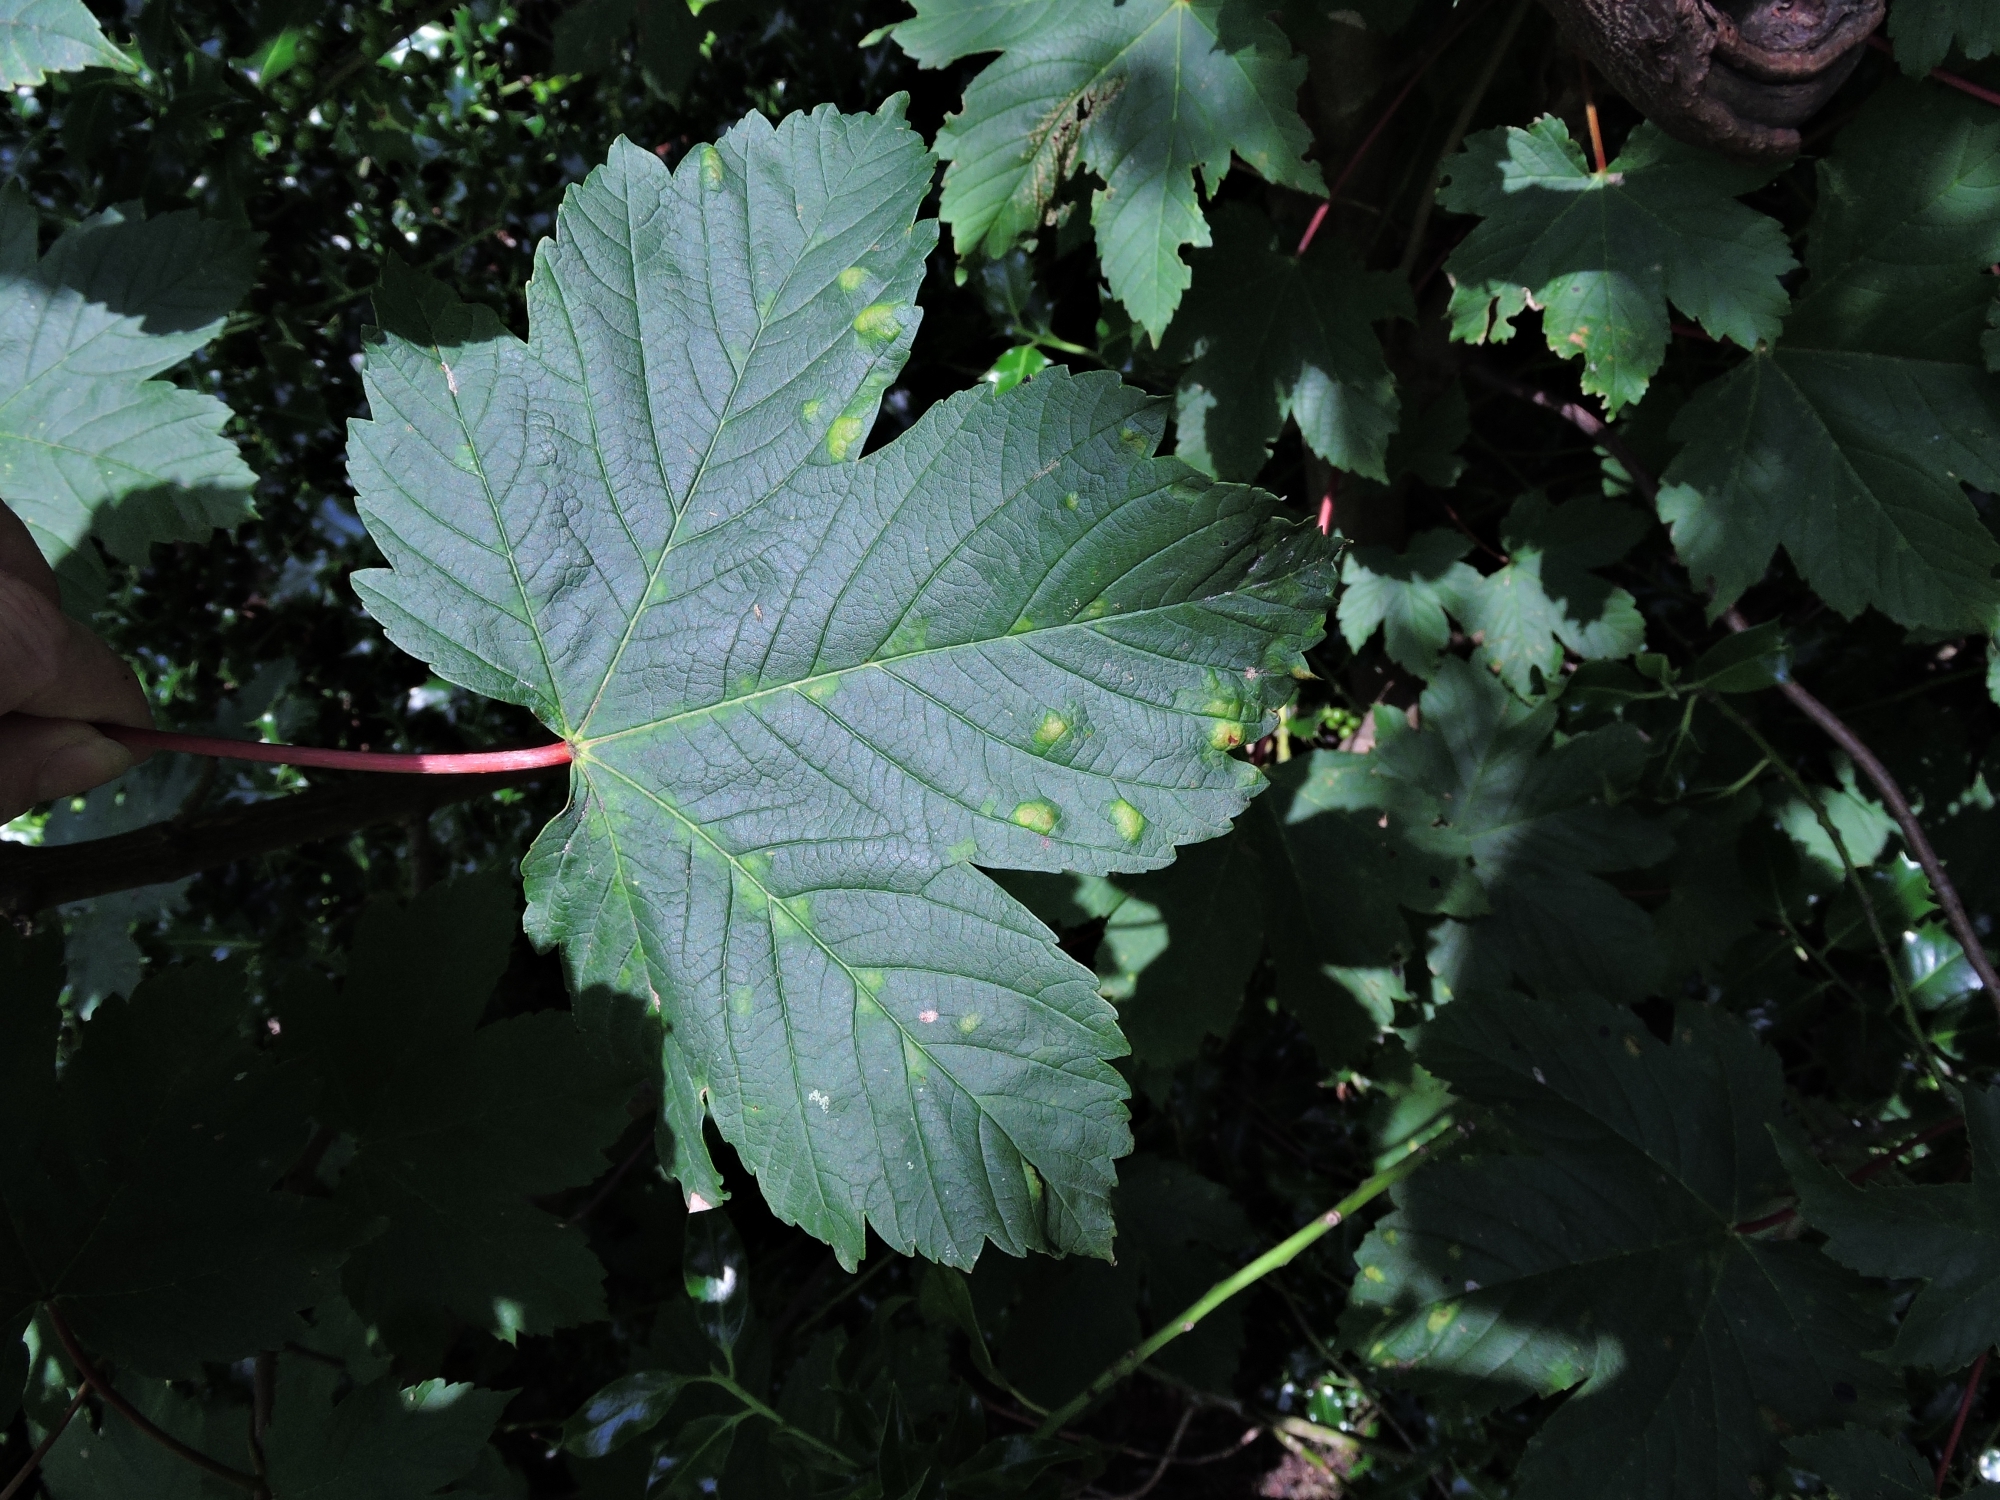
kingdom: Animalia
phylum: Arthropoda
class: Arachnida
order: Trombidiformes
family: Eriophyidae
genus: Aceria
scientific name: Aceria pseudoplatani
